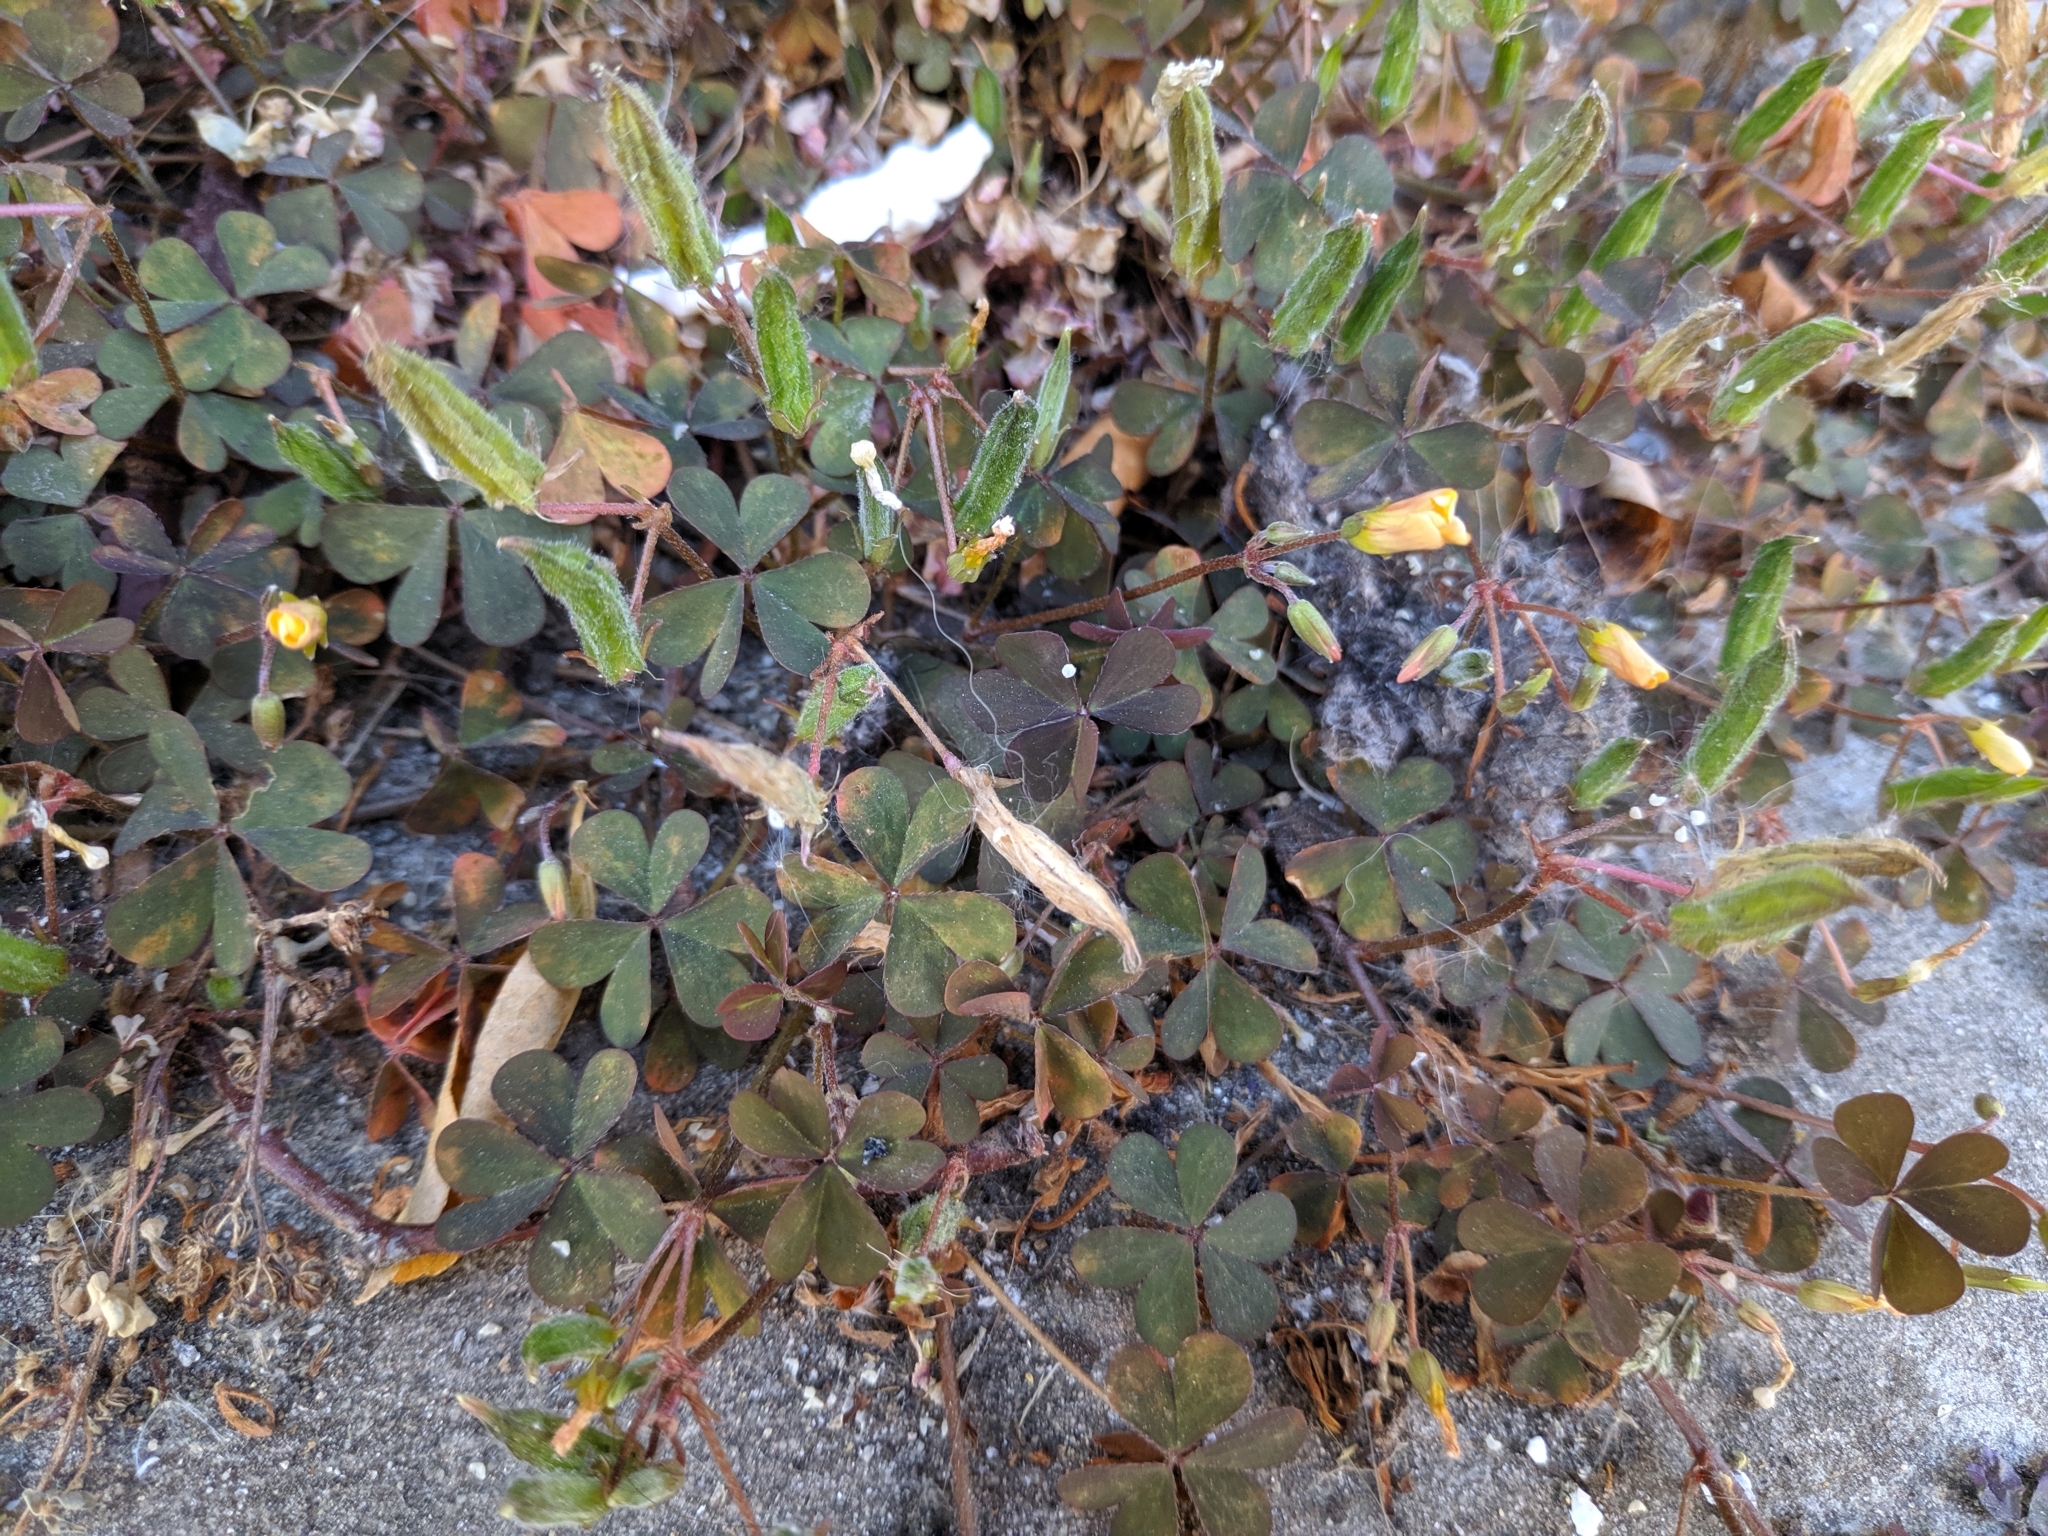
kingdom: Plantae
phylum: Tracheophyta
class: Magnoliopsida
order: Oxalidales
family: Oxalidaceae
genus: Oxalis
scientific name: Oxalis corniculata
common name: Procumbent yellow-sorrel
